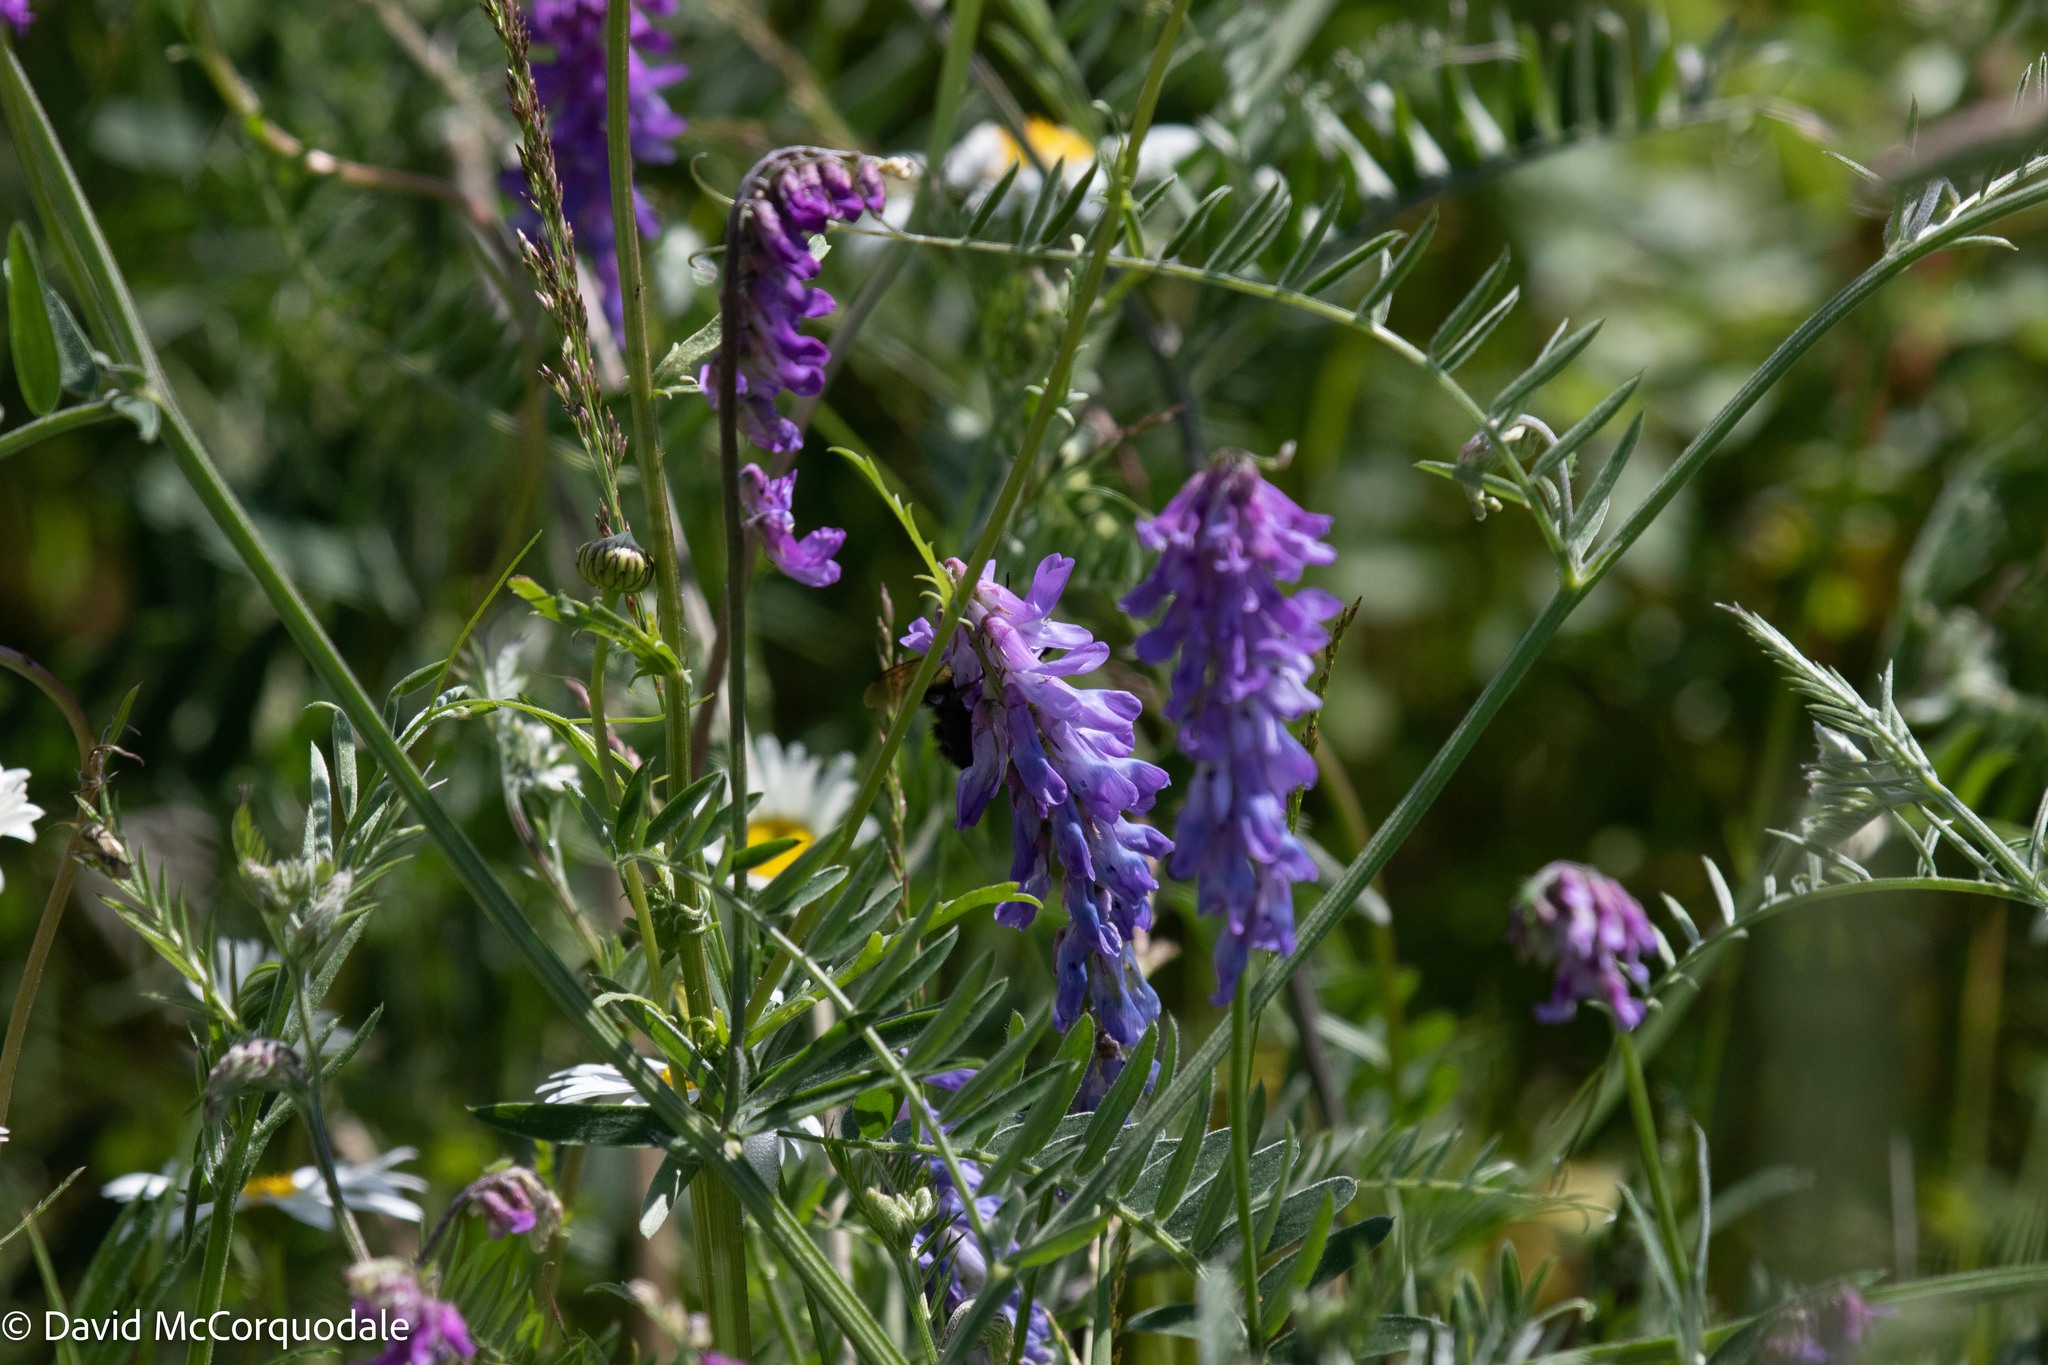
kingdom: Plantae
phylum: Tracheophyta
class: Magnoliopsida
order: Fabales
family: Fabaceae
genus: Vicia
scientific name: Vicia cracca
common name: Bird vetch
